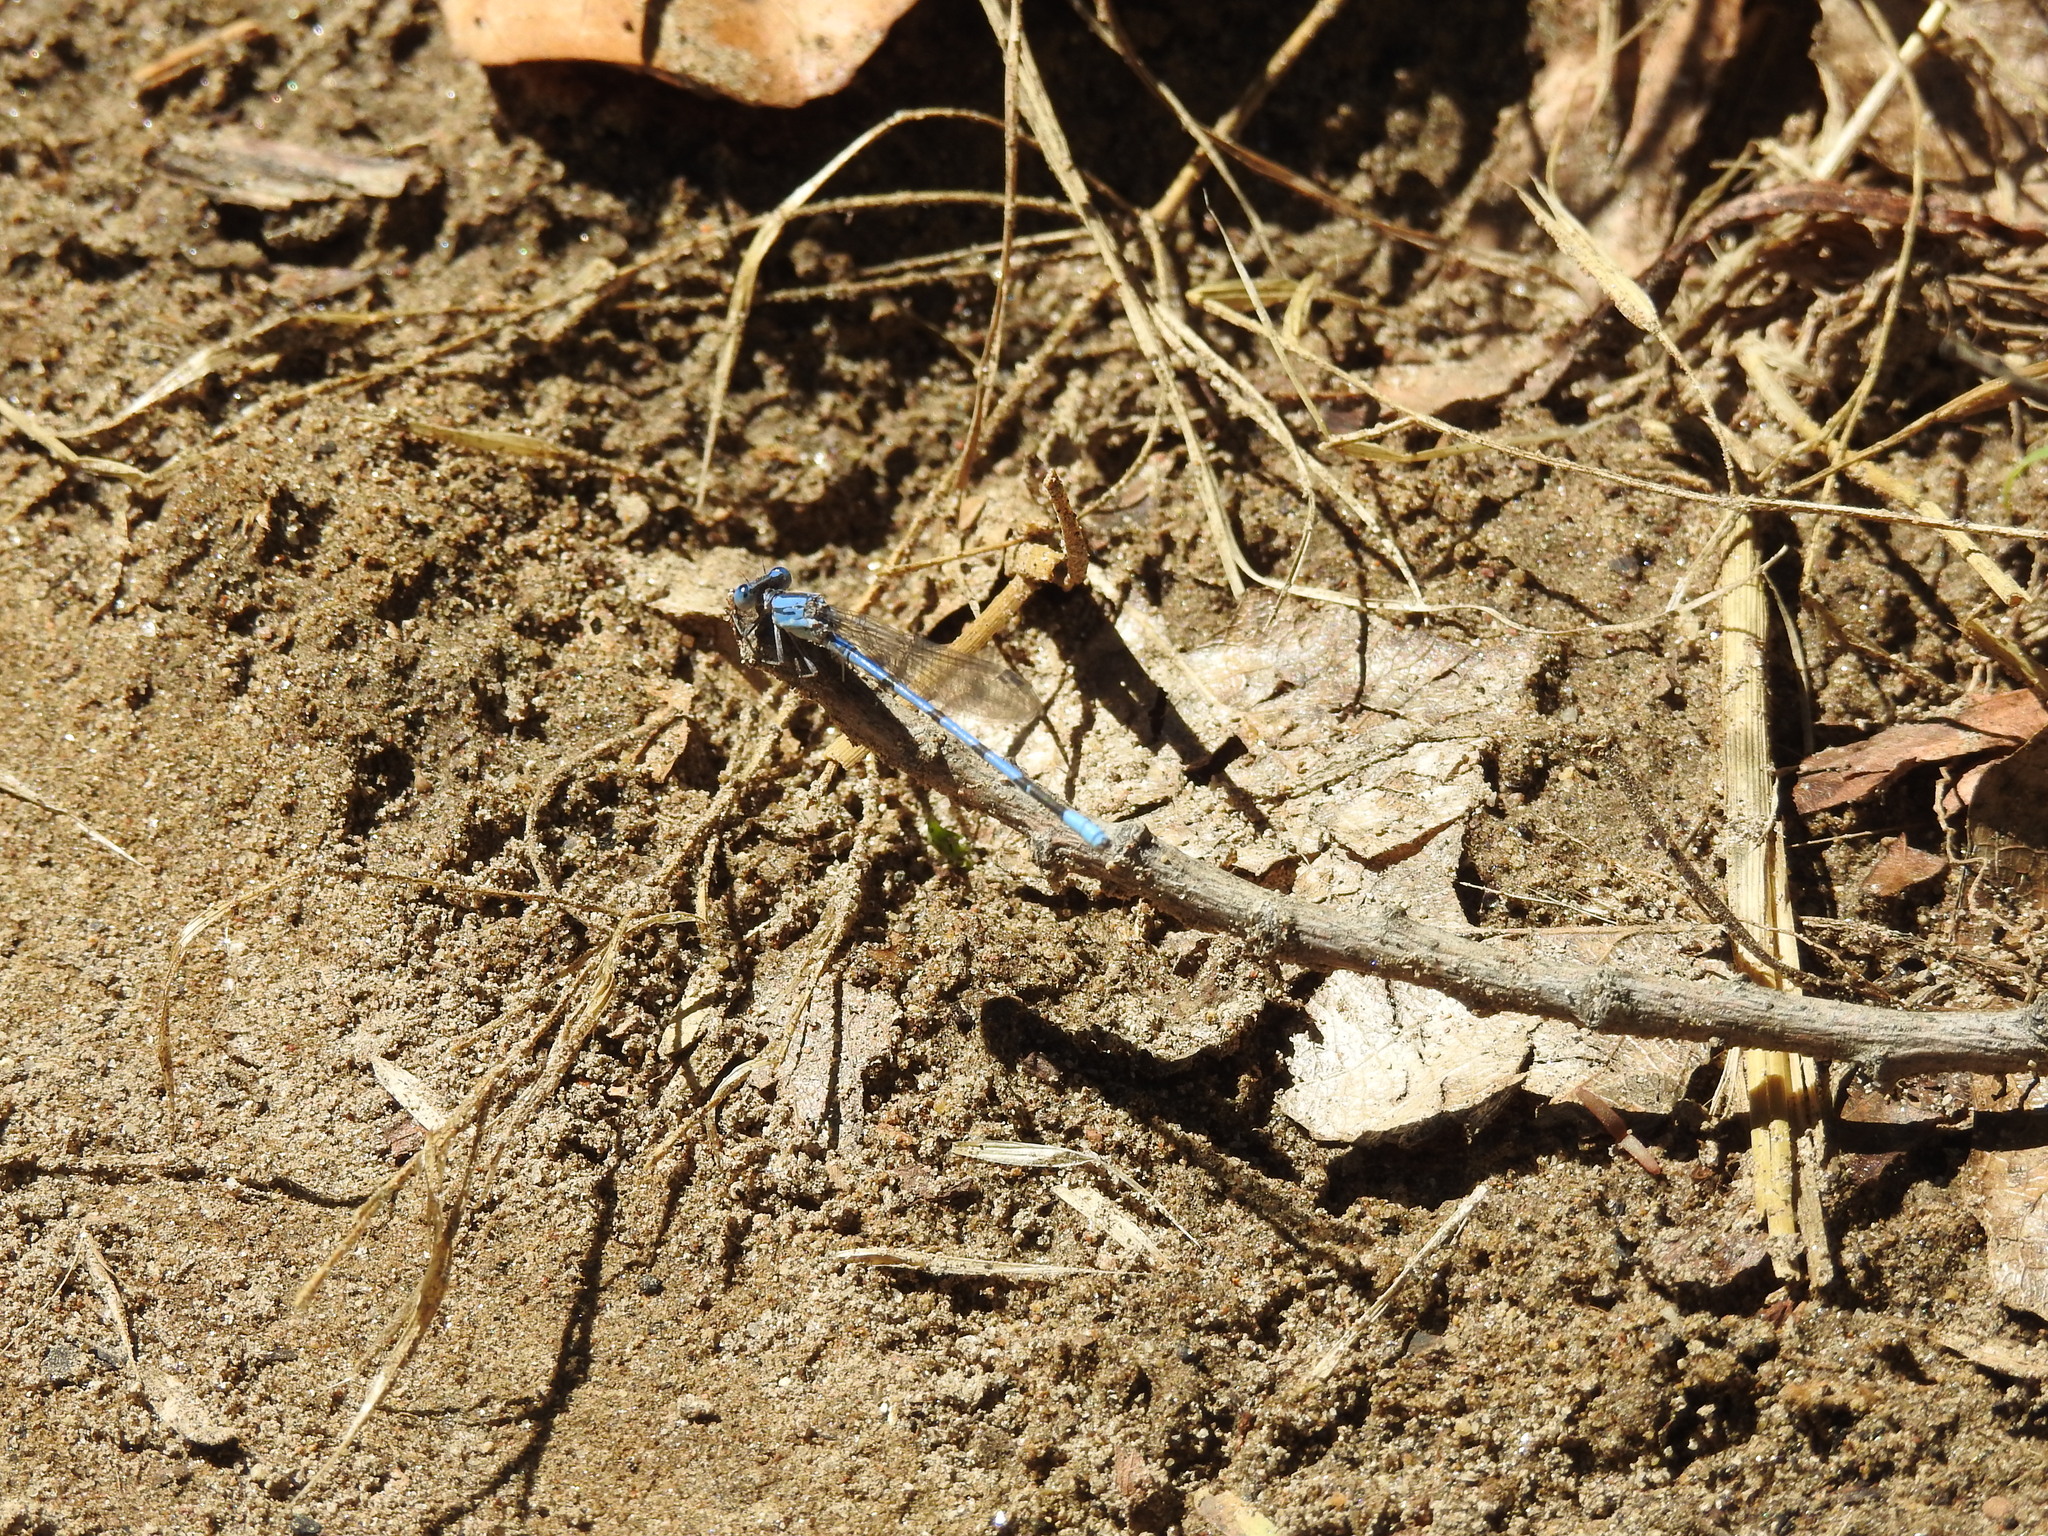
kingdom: Animalia
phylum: Arthropoda
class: Insecta
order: Odonata
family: Coenagrionidae
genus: Argia
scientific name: Argia agrioides
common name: California dancer
